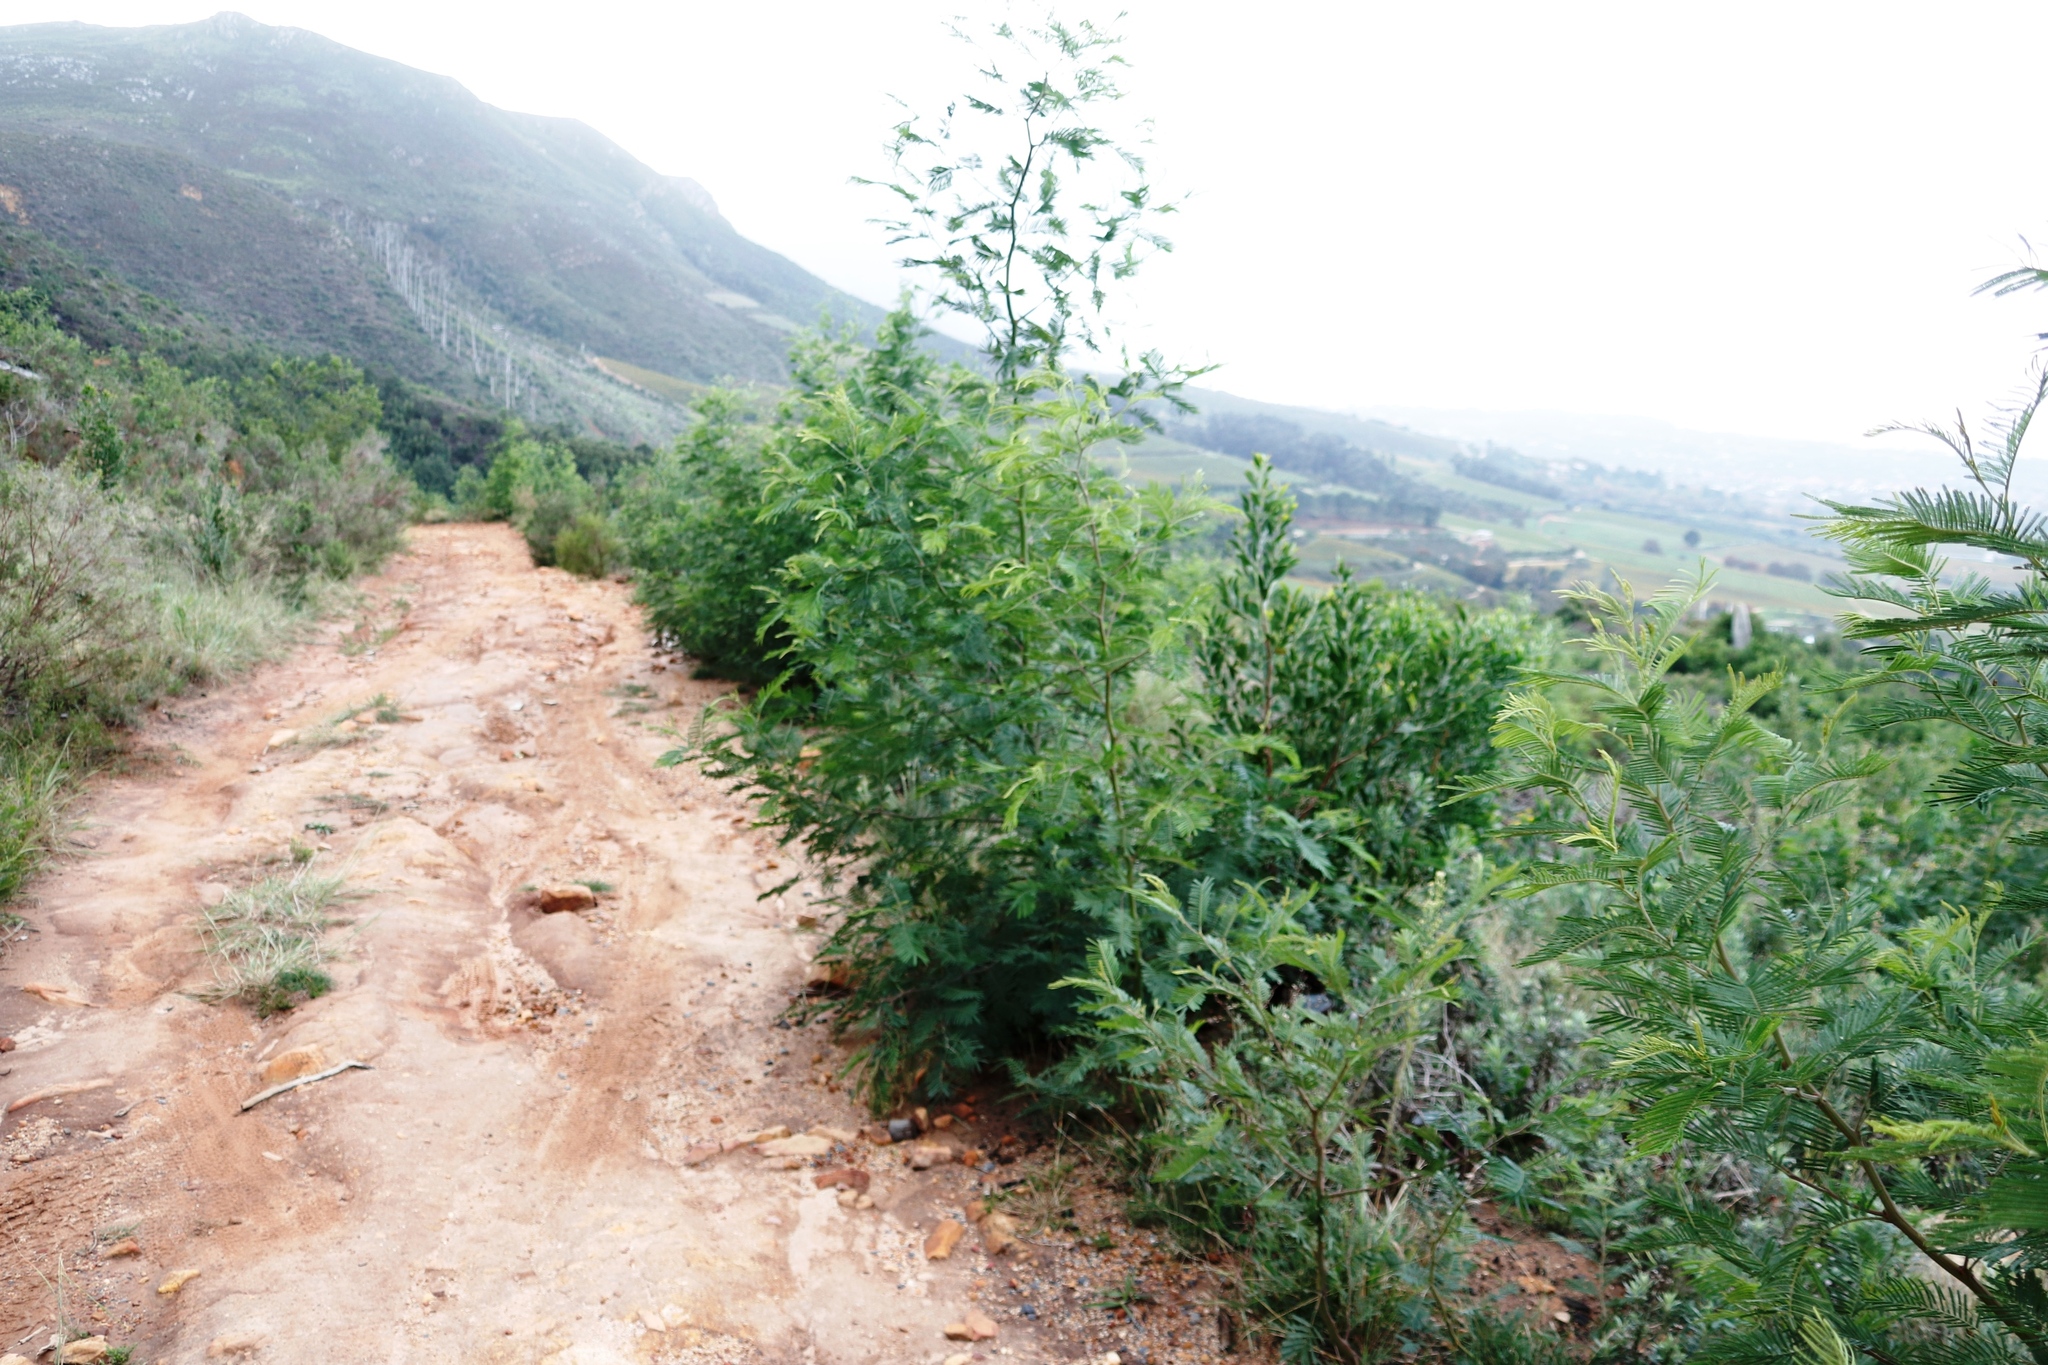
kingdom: Plantae
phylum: Tracheophyta
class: Magnoliopsida
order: Fabales
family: Fabaceae
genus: Acacia
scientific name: Acacia mearnsii
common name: Black wattle
